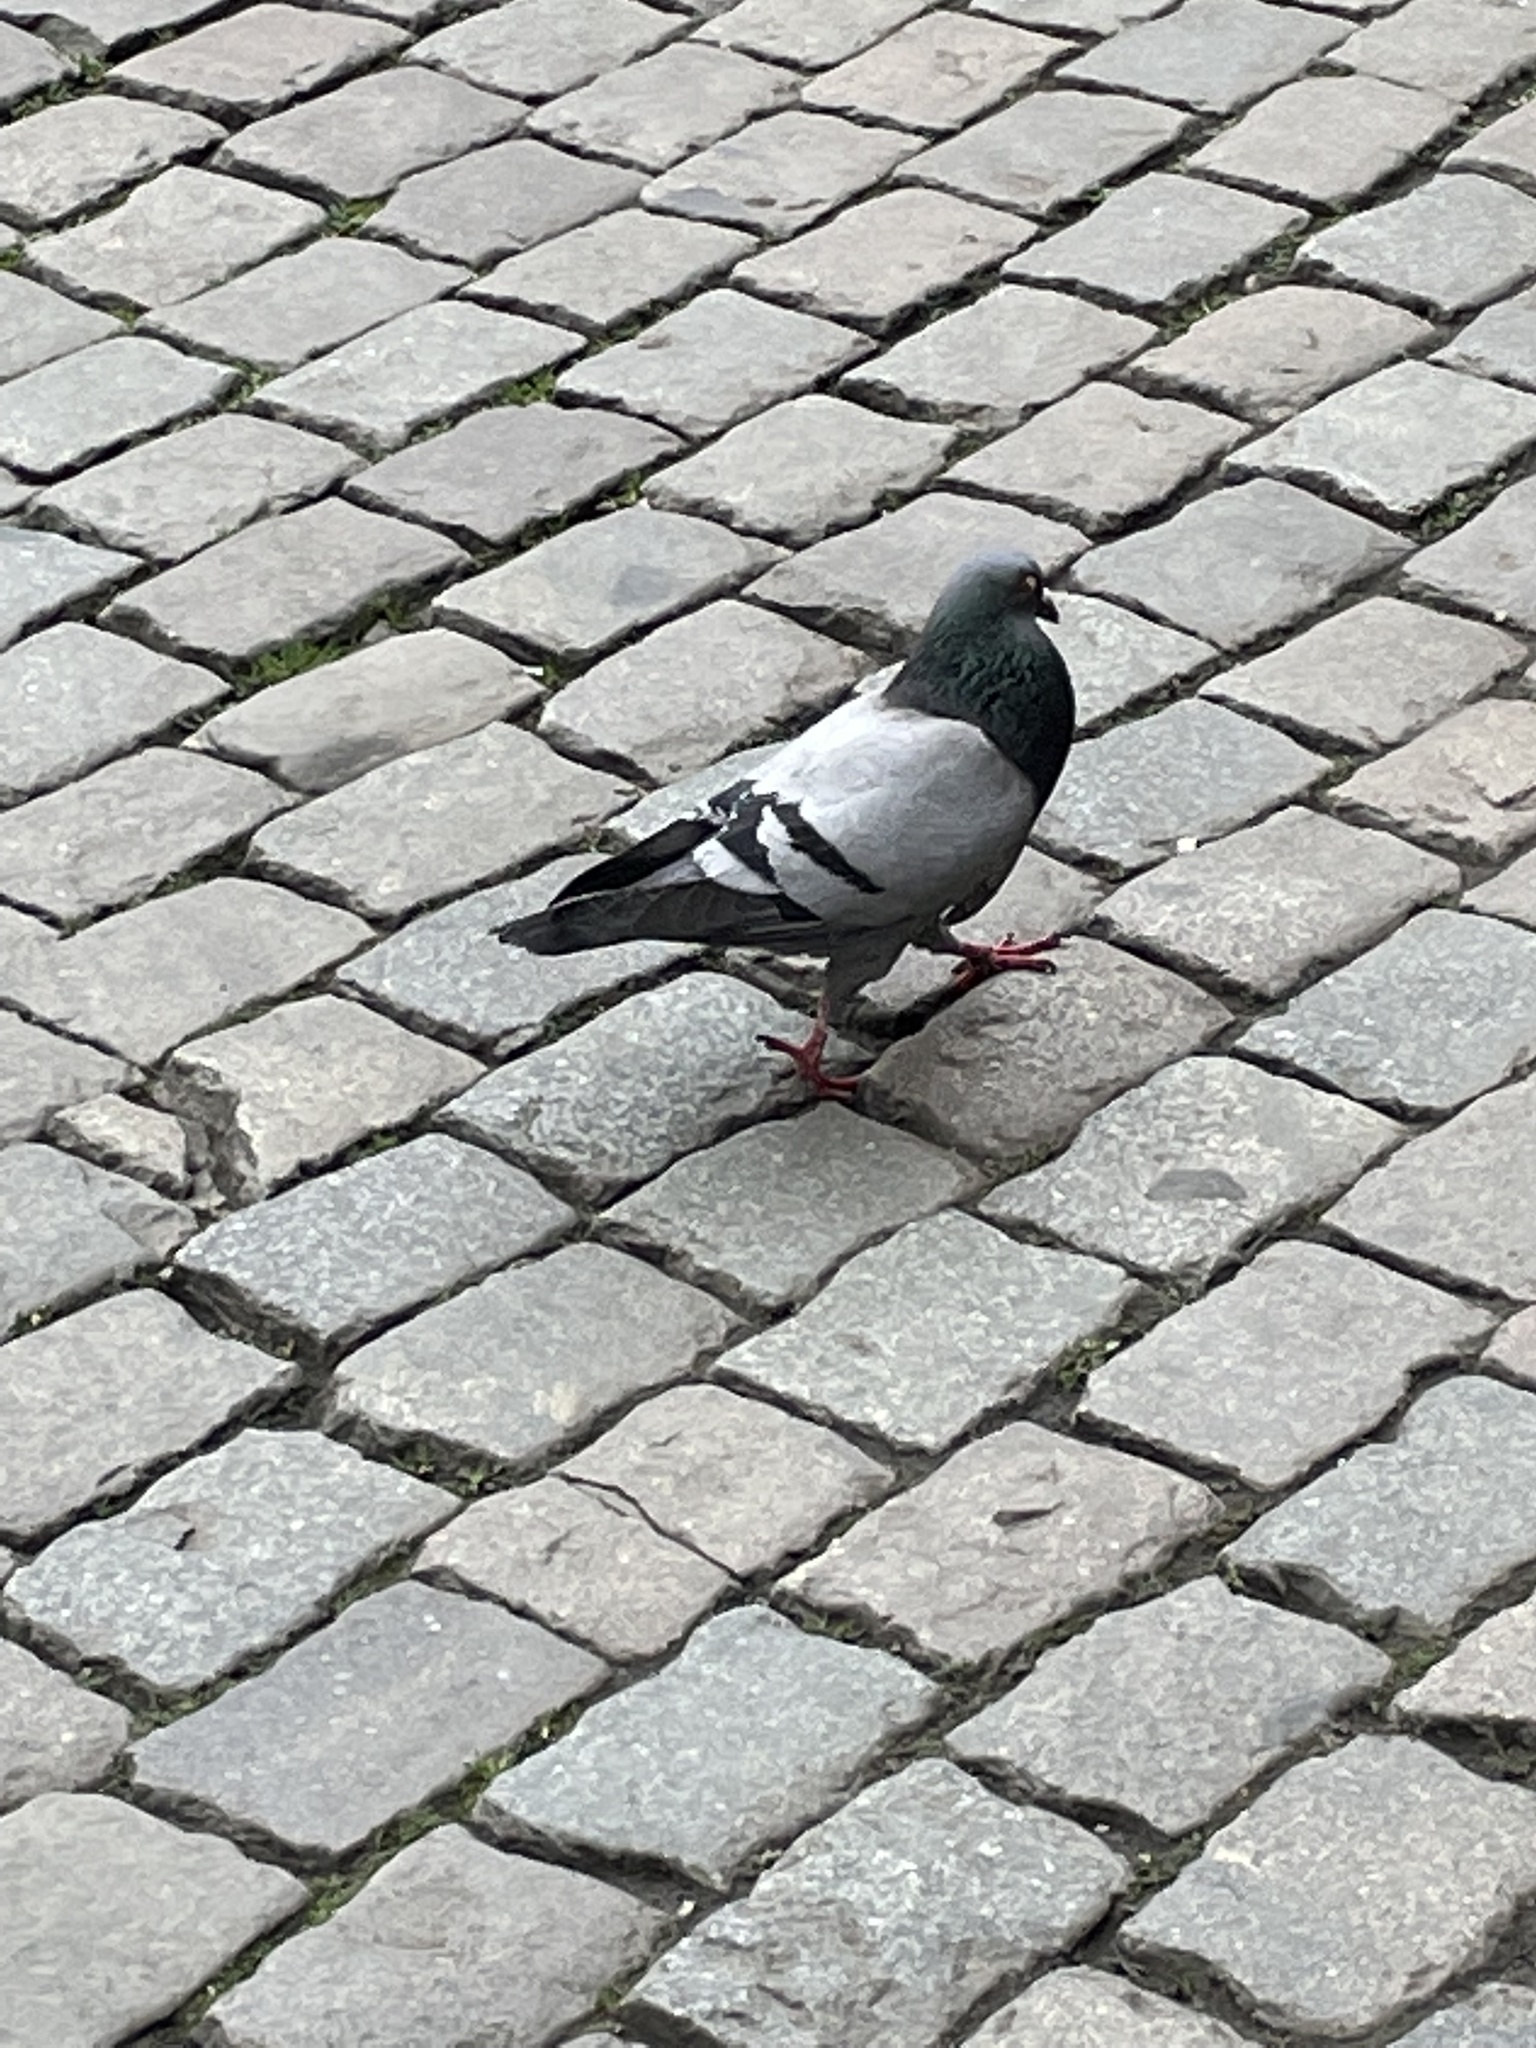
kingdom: Animalia
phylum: Chordata
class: Aves
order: Columbiformes
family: Columbidae
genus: Columba
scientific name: Columba livia
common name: Rock pigeon
